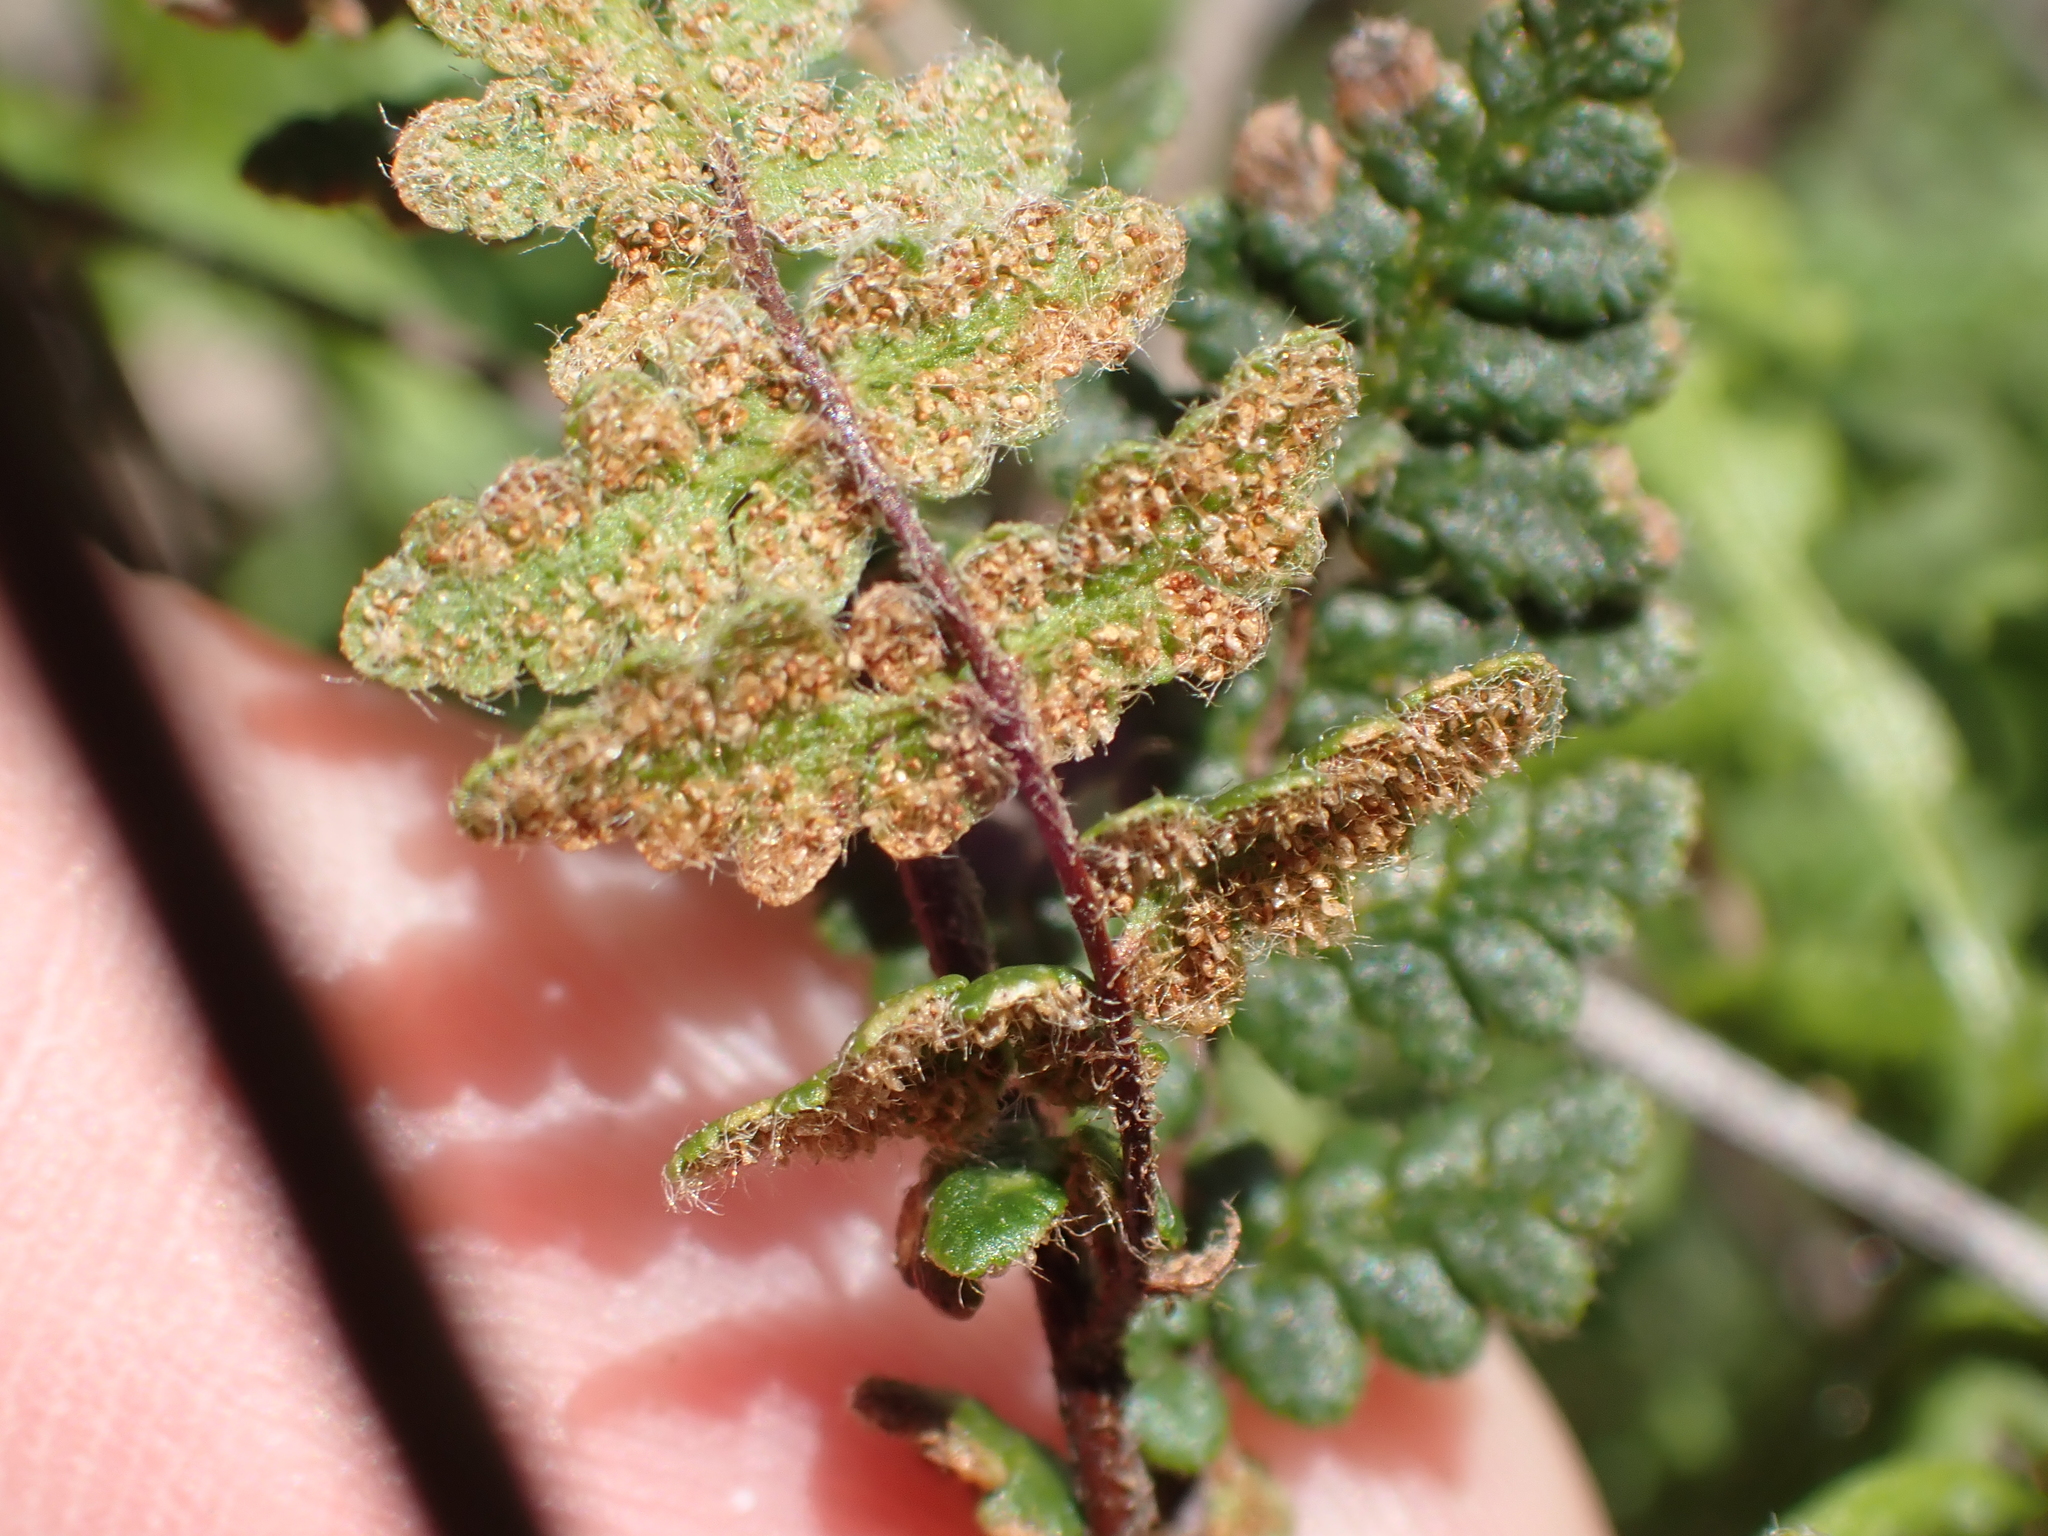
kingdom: Plantae
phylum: Tracheophyta
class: Polypodiopsida
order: Polypodiales
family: Pteridaceae
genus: Myriopteris
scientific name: Myriopteris lanosa
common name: Hairy lip fern
